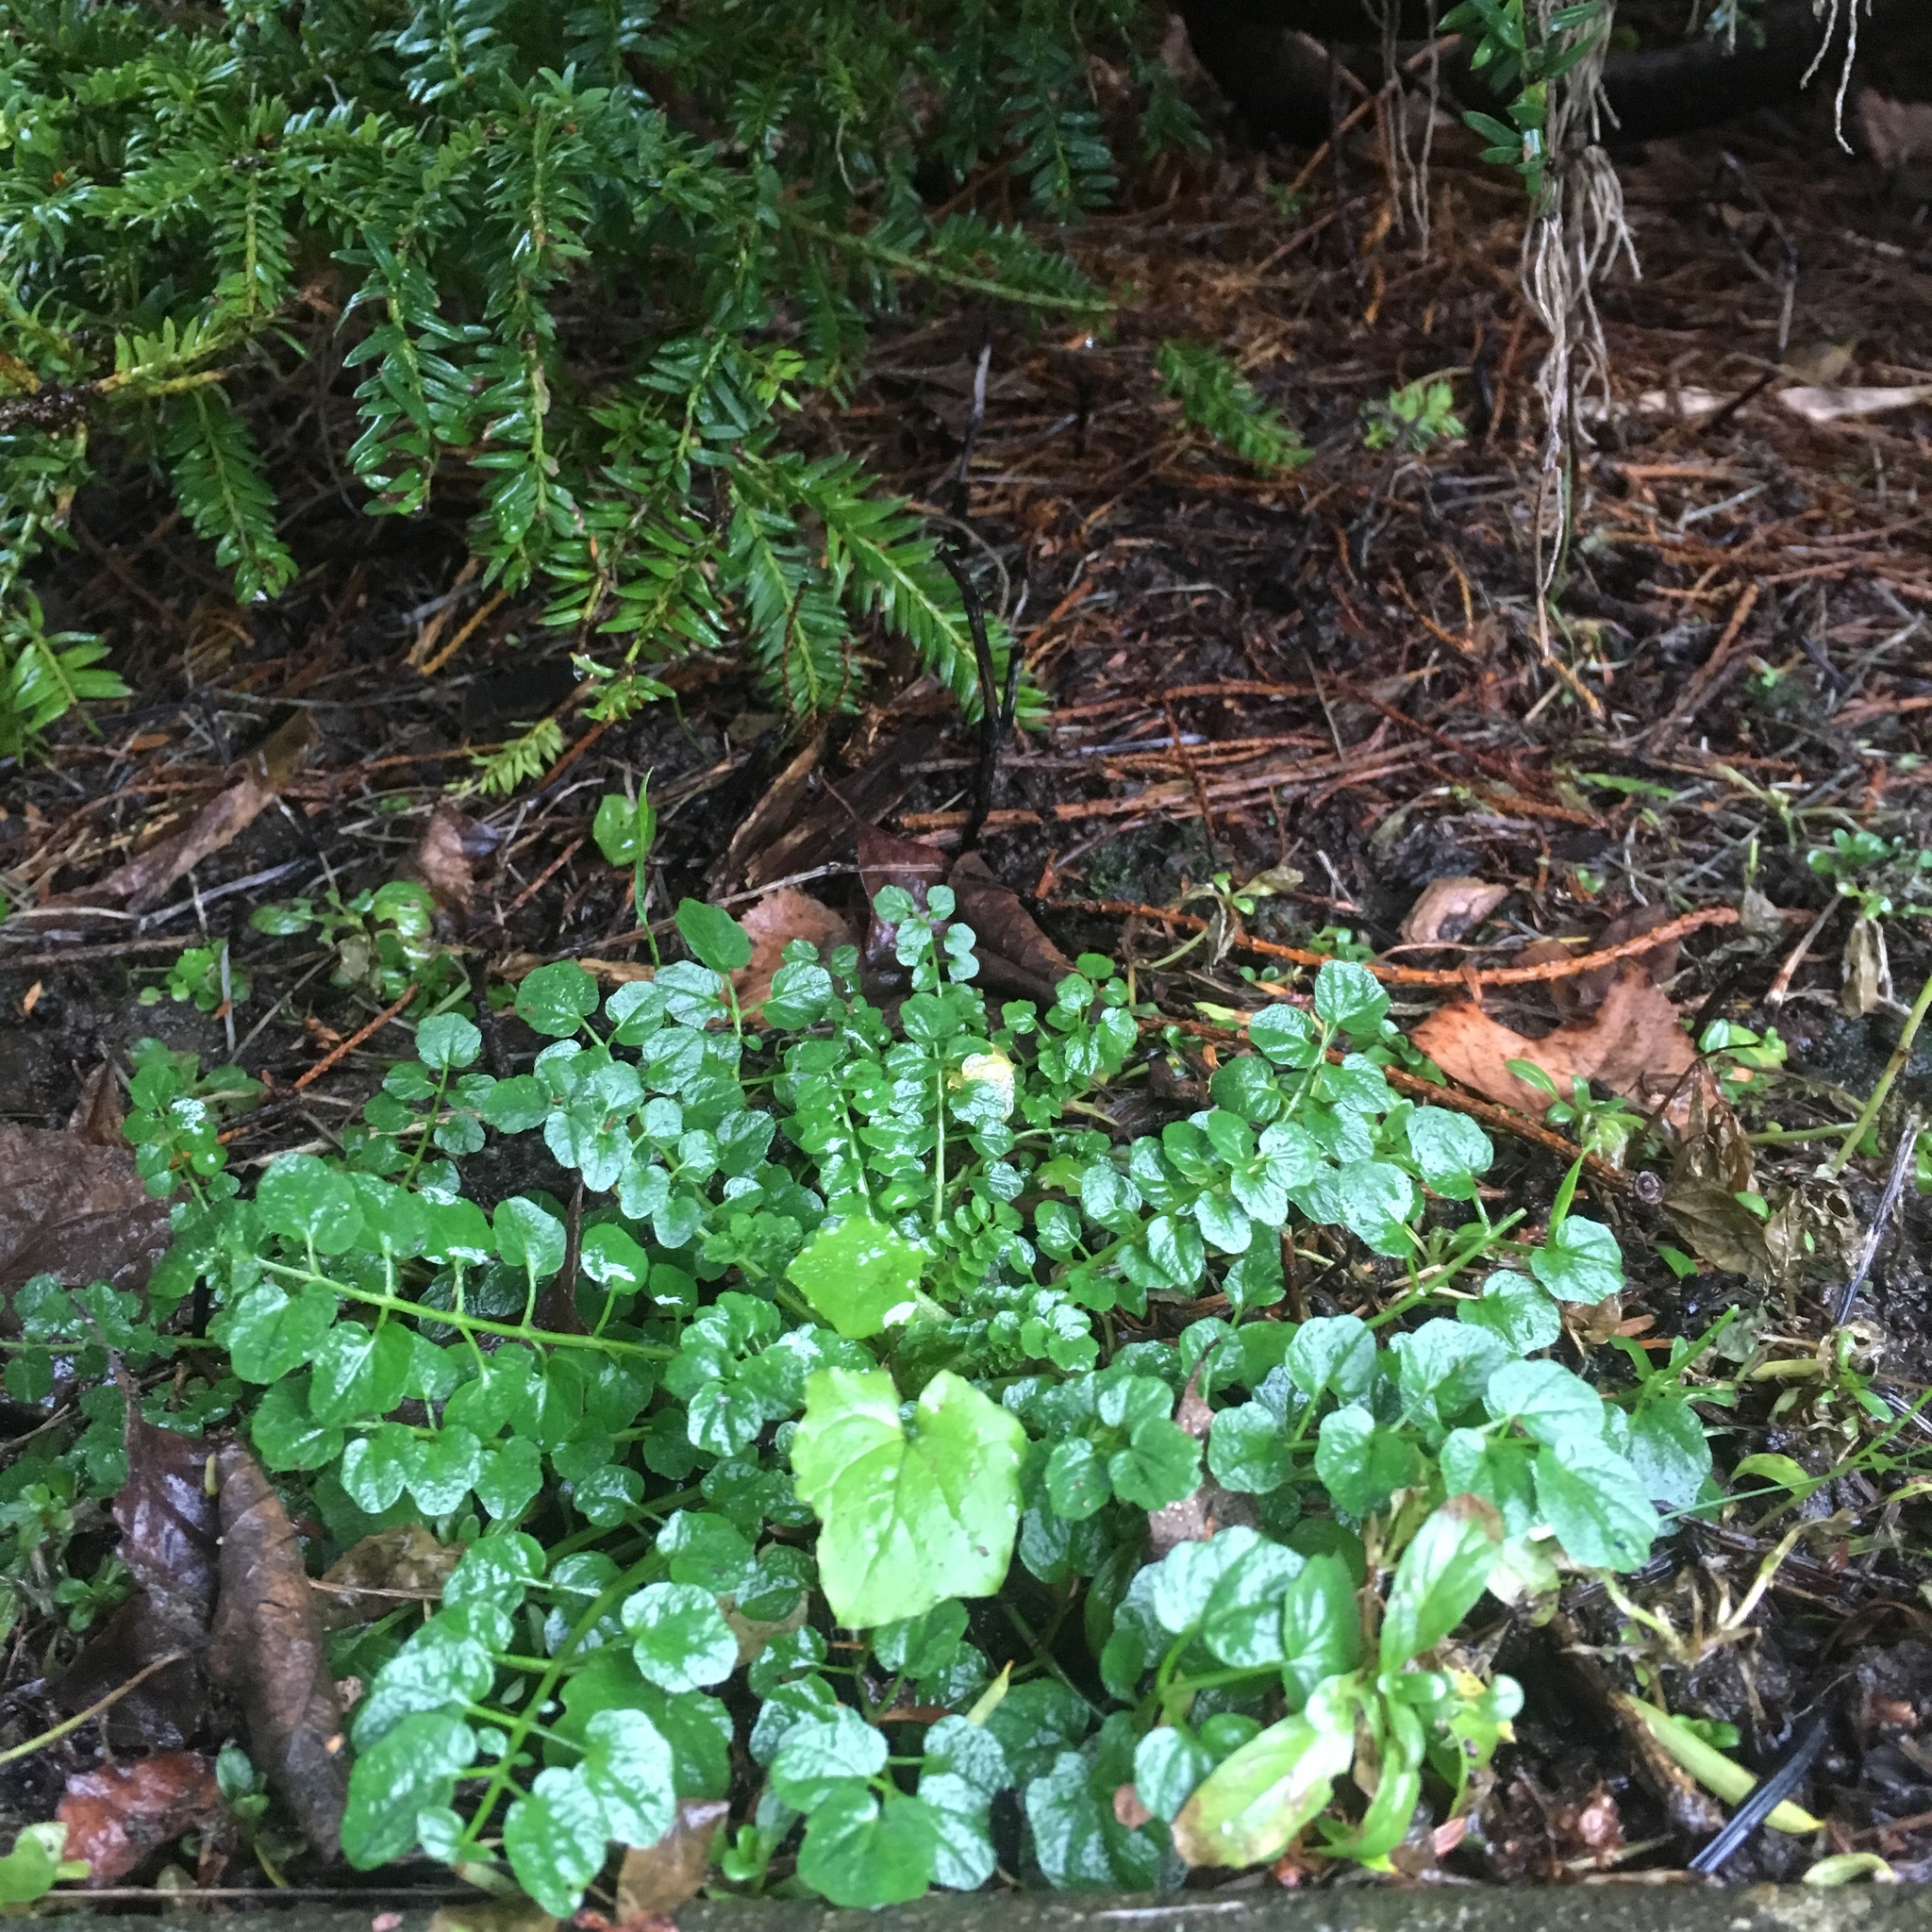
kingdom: Plantae
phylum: Tracheophyta
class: Magnoliopsida
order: Brassicales
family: Brassicaceae
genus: Cardamine
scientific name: Cardamine flexuosa
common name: Woodland bittercress
